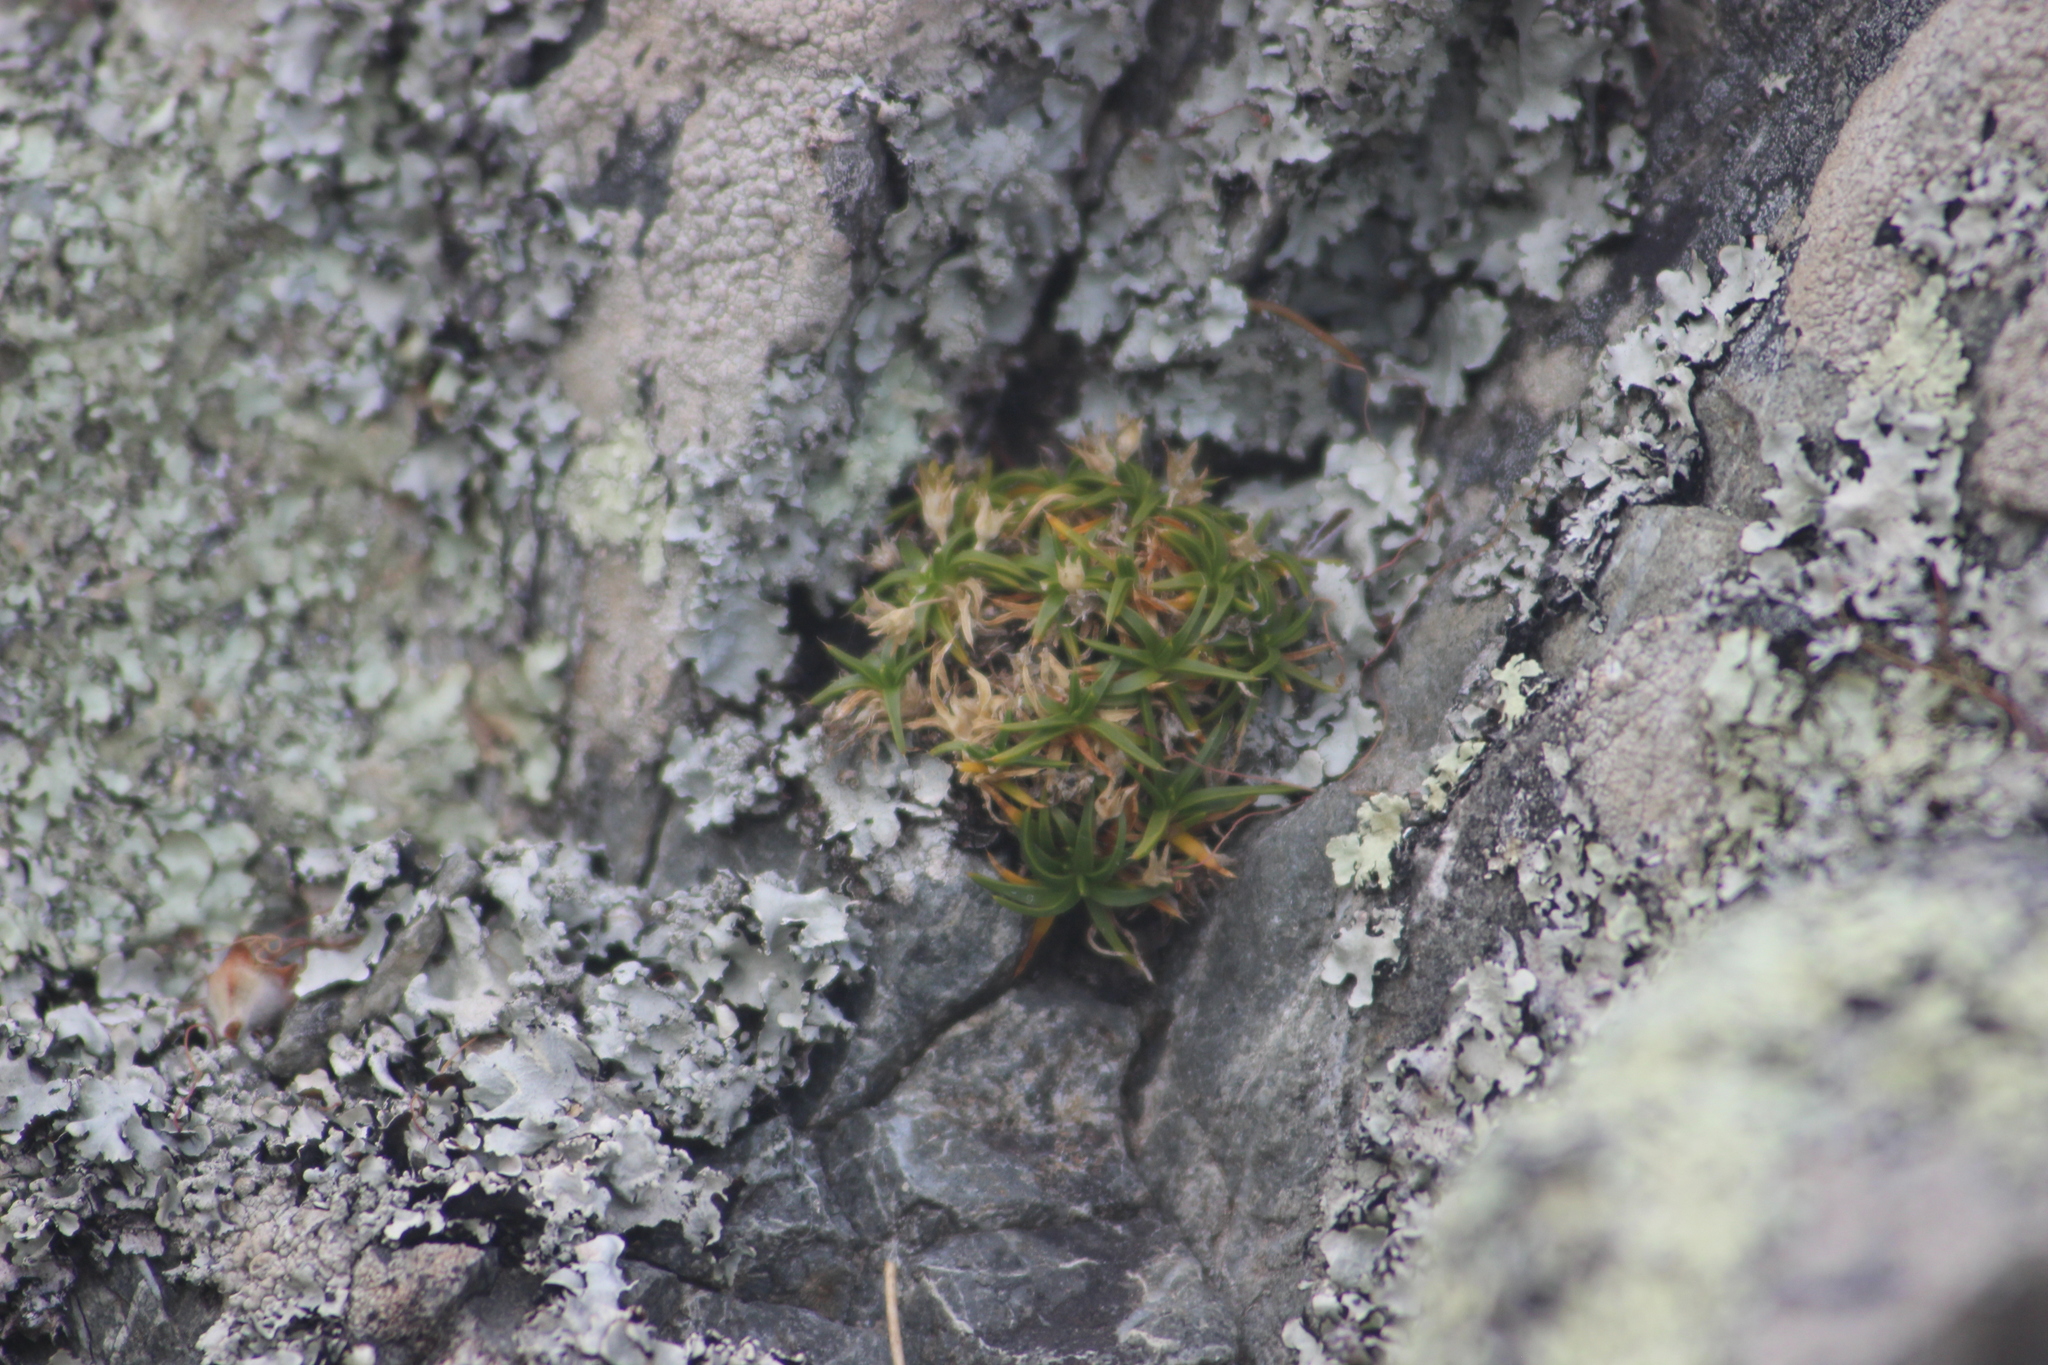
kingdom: Plantae
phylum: Tracheophyta
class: Magnoliopsida
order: Caryophyllales
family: Caryophyllaceae
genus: Colobanthus
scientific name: Colobanthus muelleri
